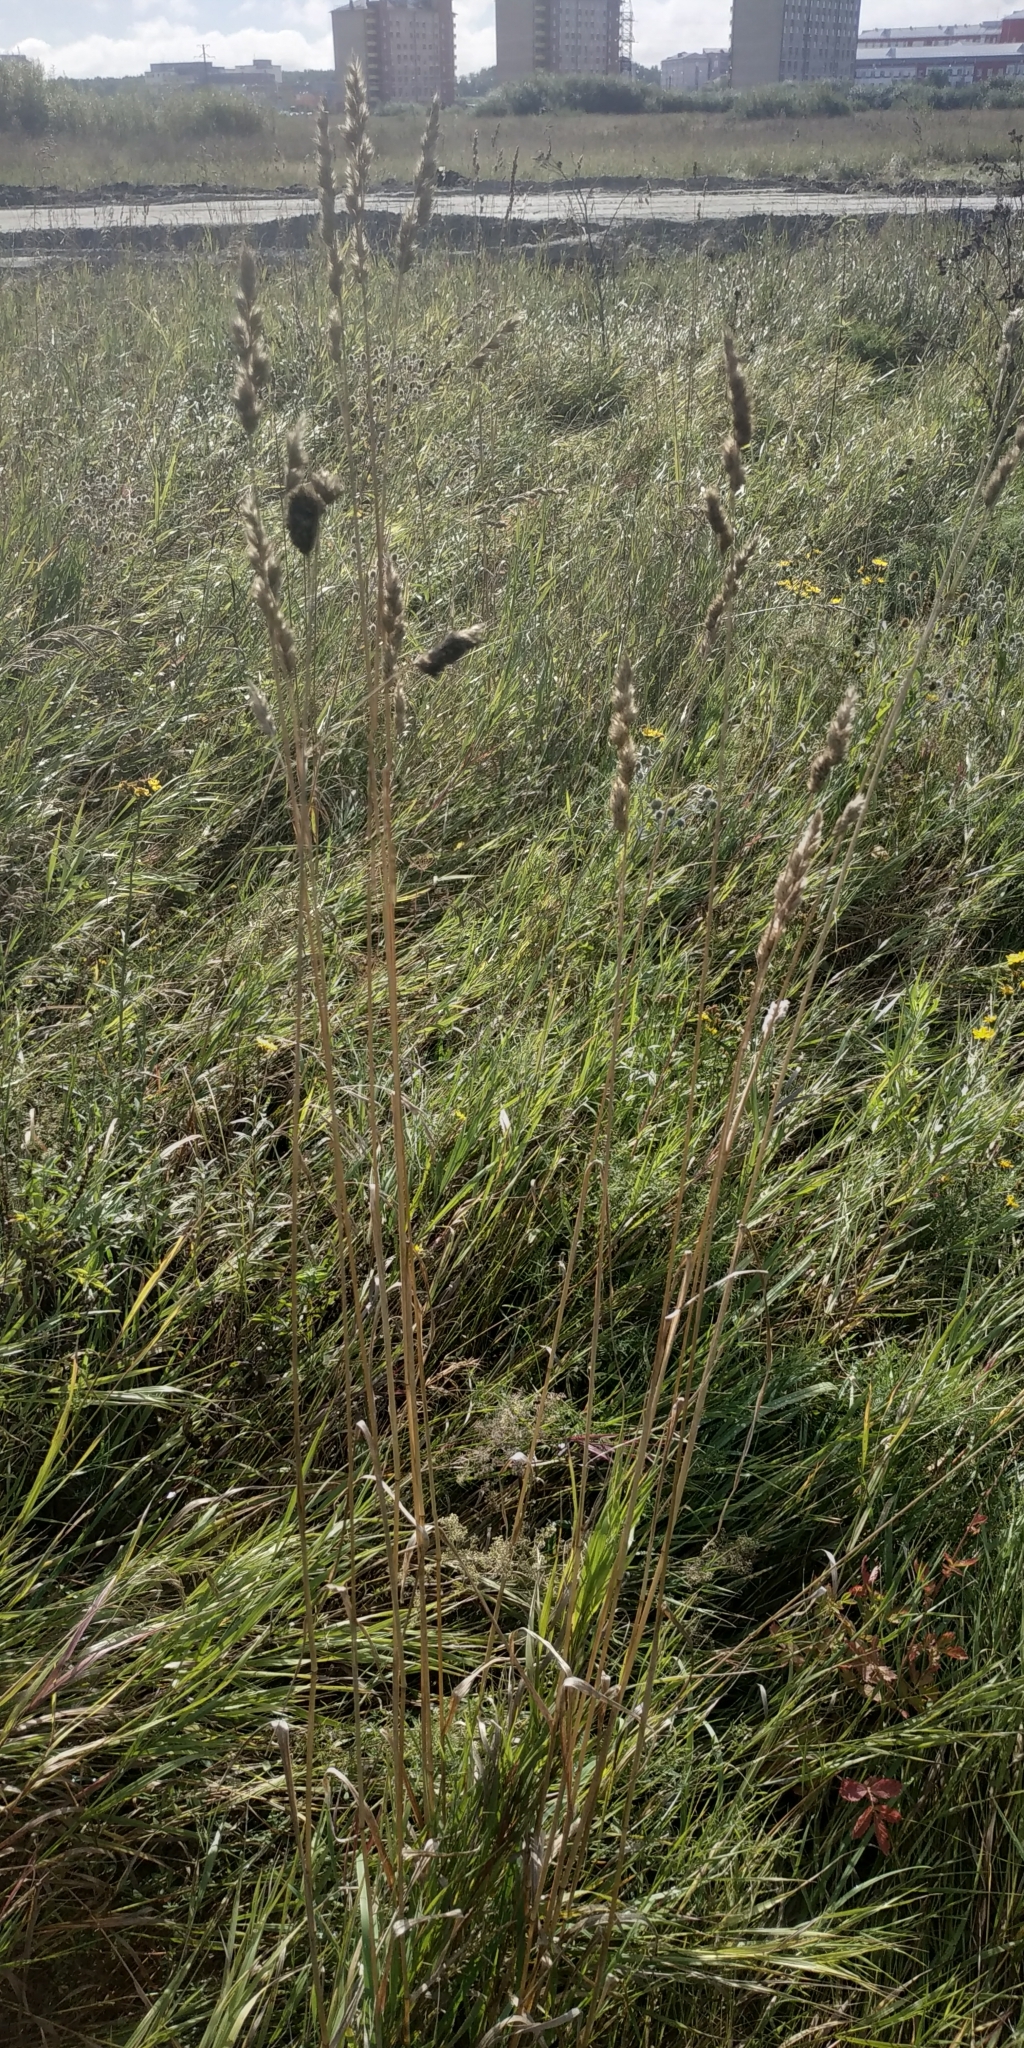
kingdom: Plantae
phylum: Tracheophyta
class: Liliopsida
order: Poales
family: Poaceae
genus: Dactylis
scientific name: Dactylis glomerata
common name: Orchardgrass
